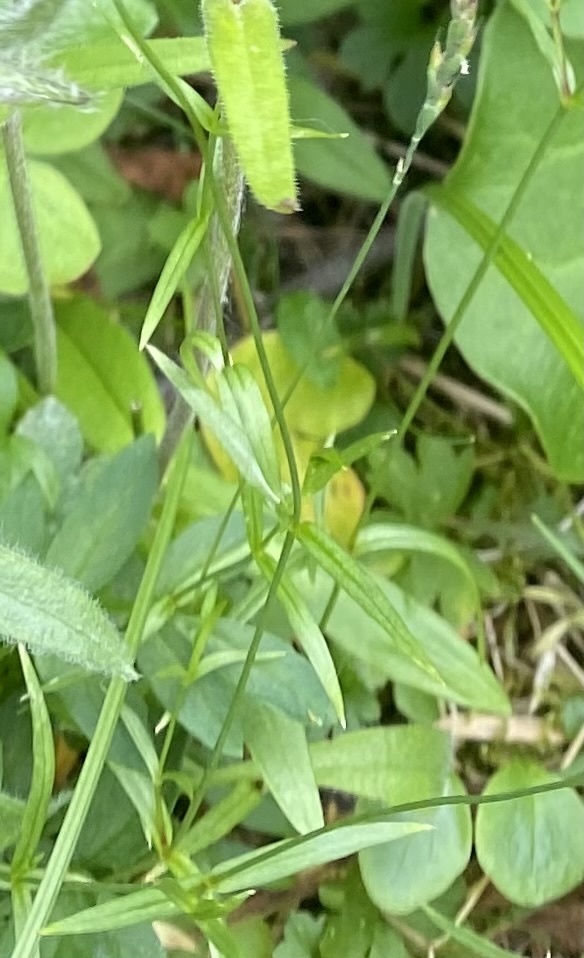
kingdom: Plantae
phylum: Tracheophyta
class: Magnoliopsida
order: Caryophyllales
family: Caryophyllaceae
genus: Silene
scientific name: Silene wahlbergella
